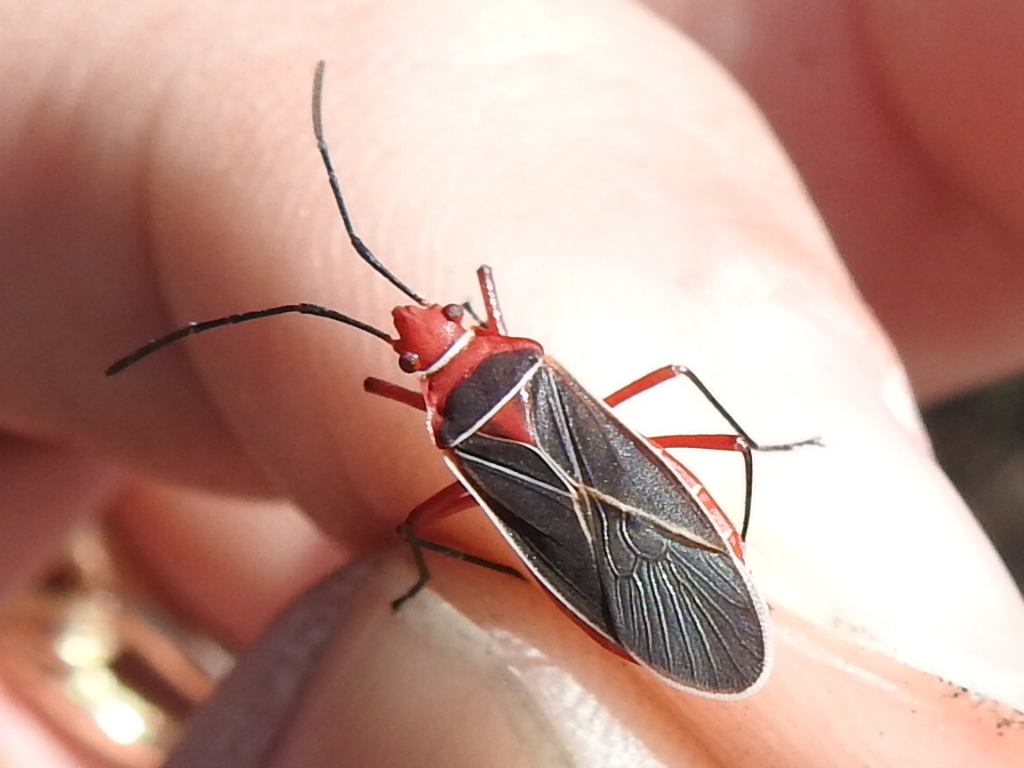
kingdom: Animalia
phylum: Arthropoda
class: Insecta
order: Hemiptera
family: Pyrrhocoridae
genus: Dysdercus
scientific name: Dysdercus suturellus
